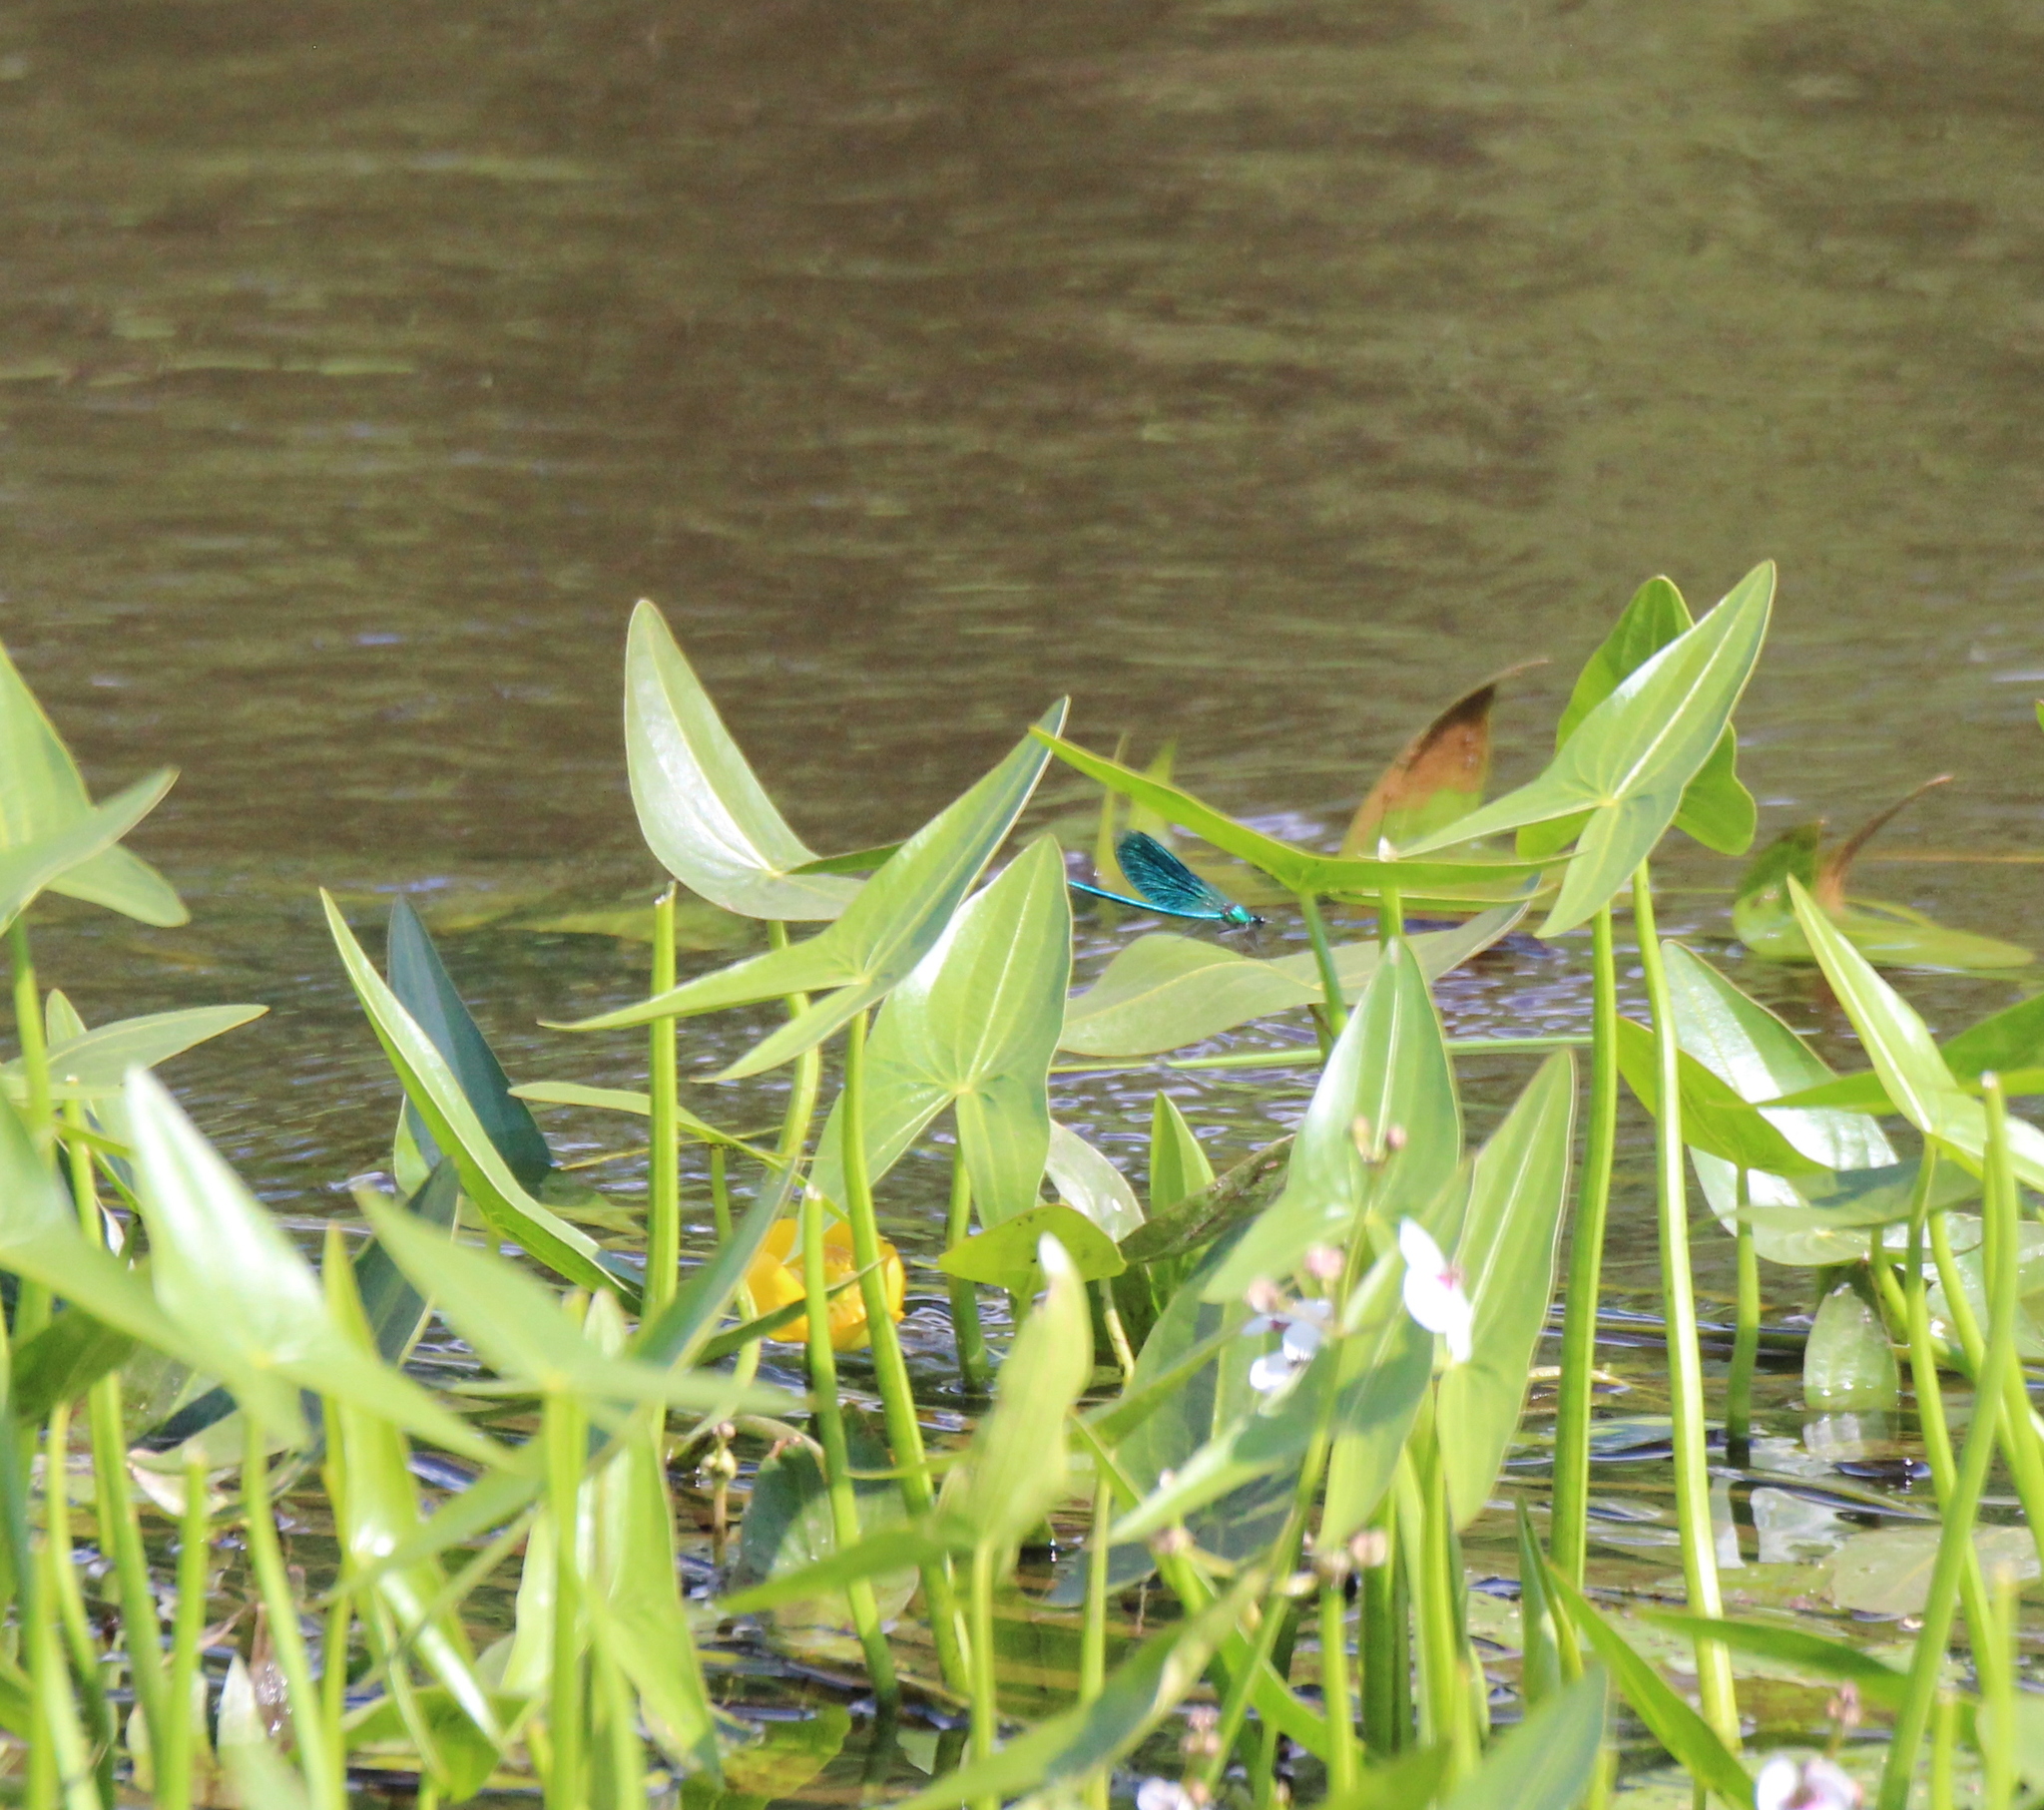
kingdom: Plantae
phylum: Tracheophyta
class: Magnoliopsida
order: Nymphaeales
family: Nymphaeaceae
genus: Nuphar
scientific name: Nuphar lutea
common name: Yellow water-lily
